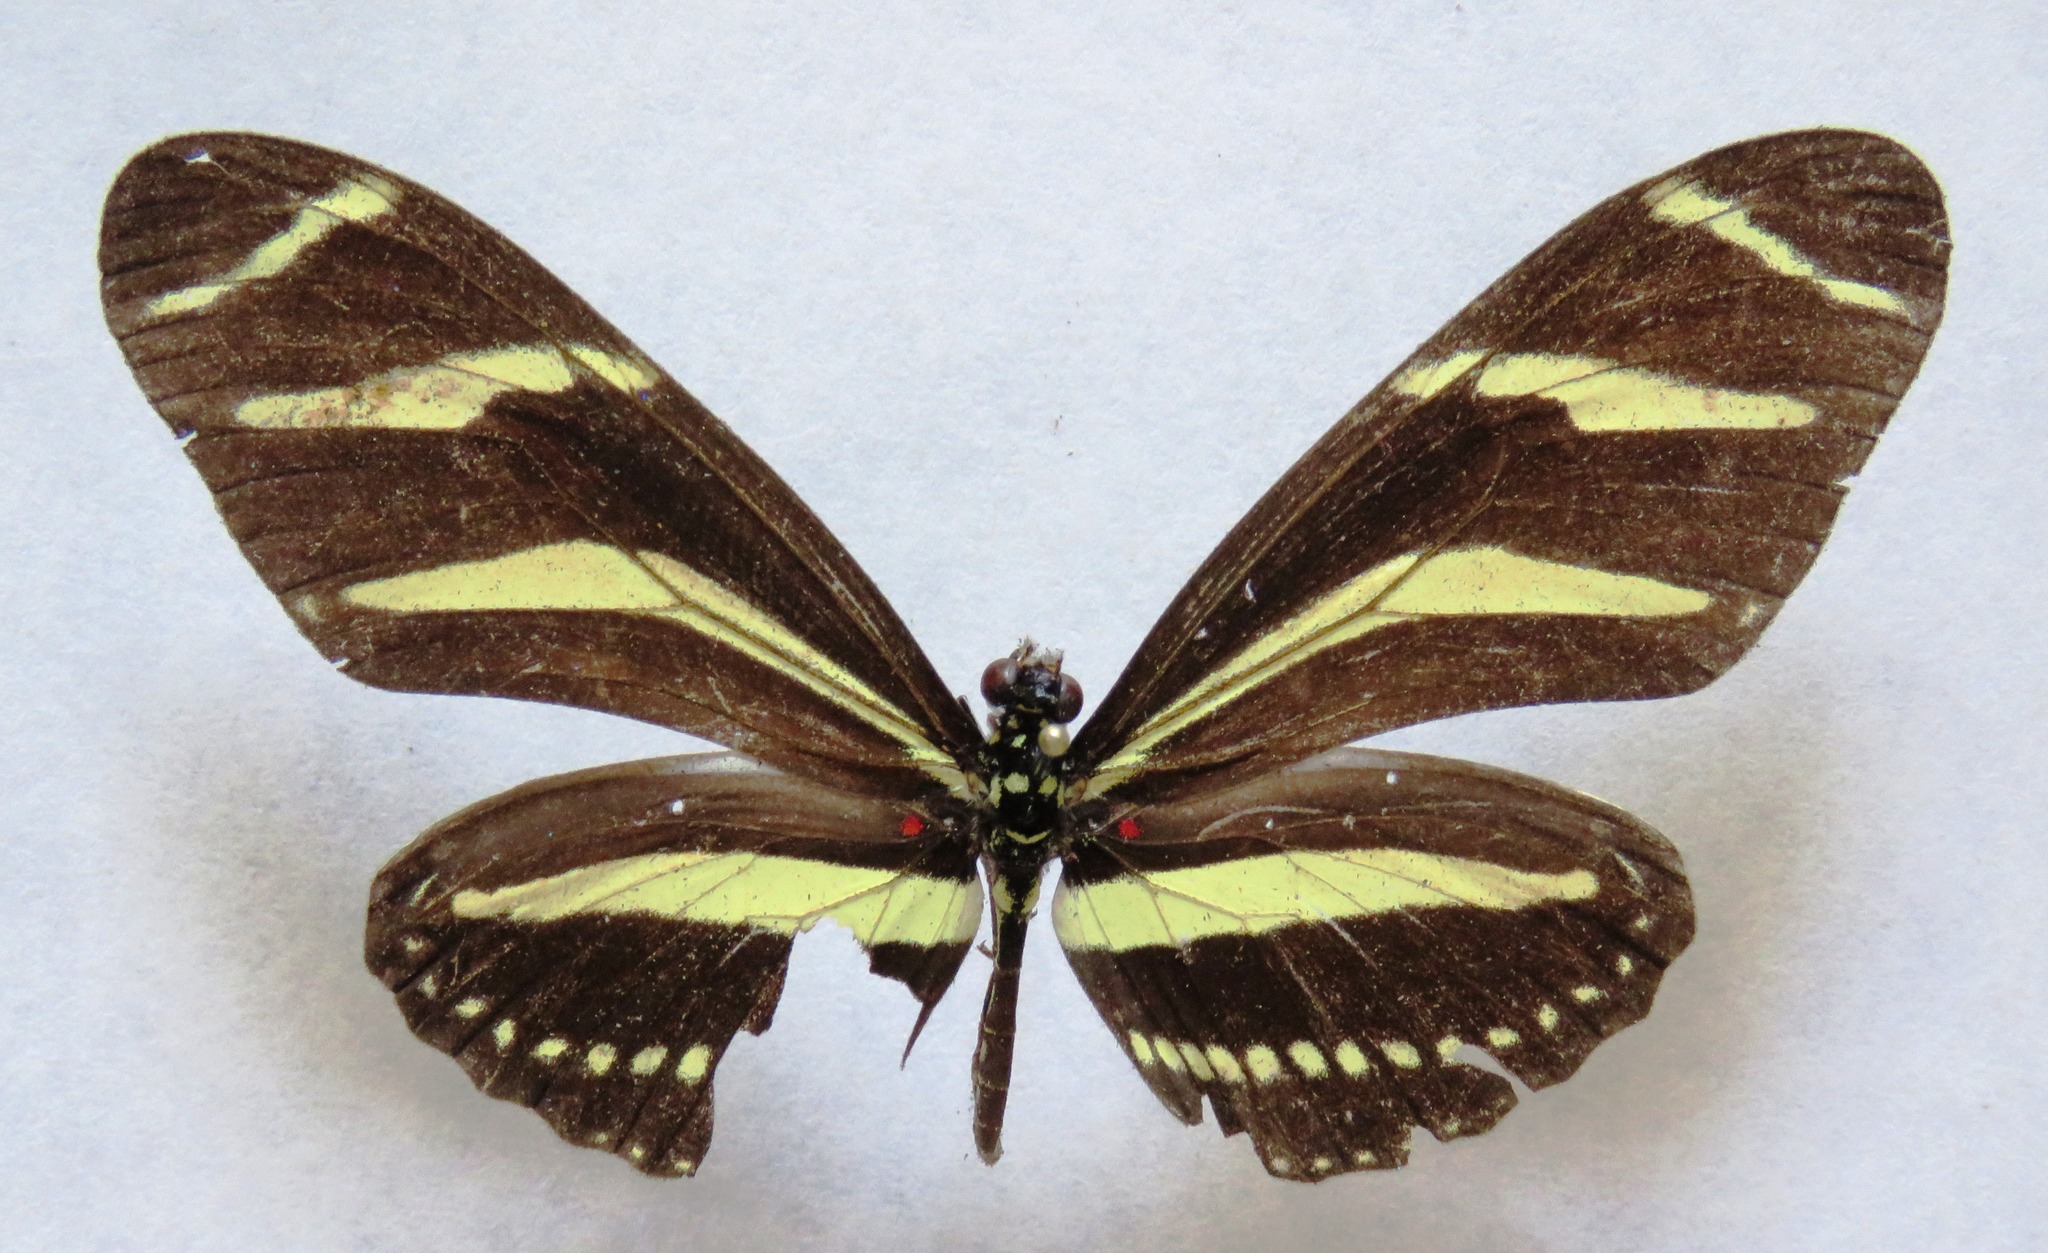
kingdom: Animalia
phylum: Arthropoda
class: Insecta
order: Lepidoptera
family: Nymphalidae
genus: Heliconius
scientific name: Heliconius charithonia
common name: Zebra long wing
